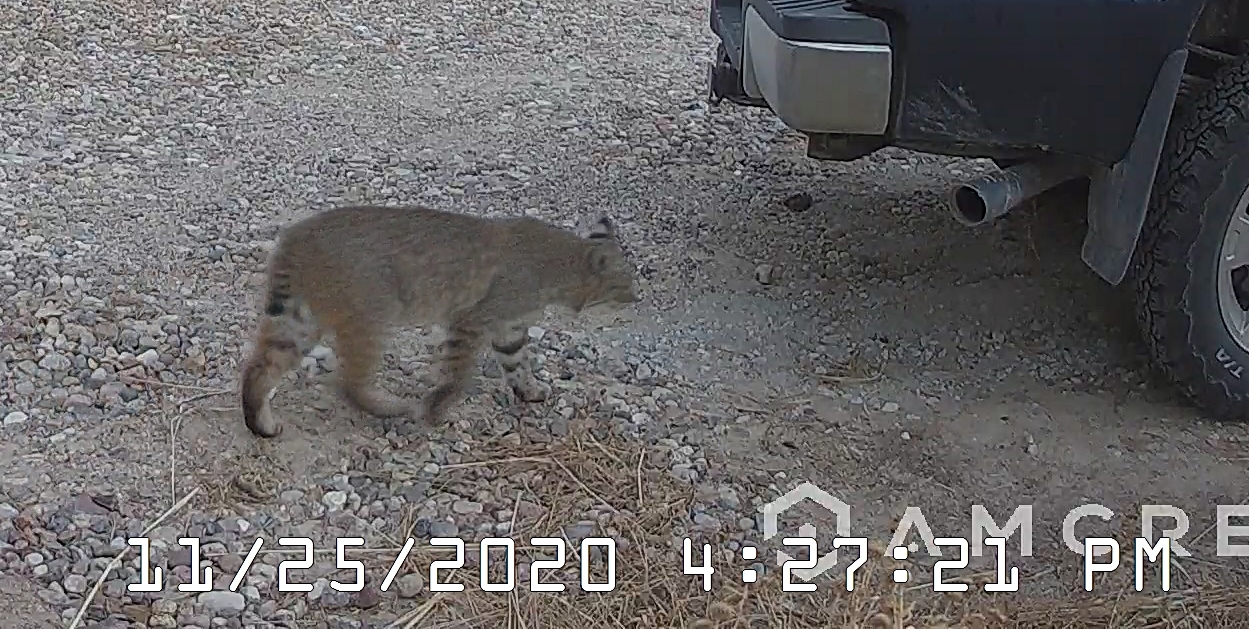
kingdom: Animalia
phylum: Chordata
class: Mammalia
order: Carnivora
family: Felidae
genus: Lynx
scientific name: Lynx rufus
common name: Bobcat
